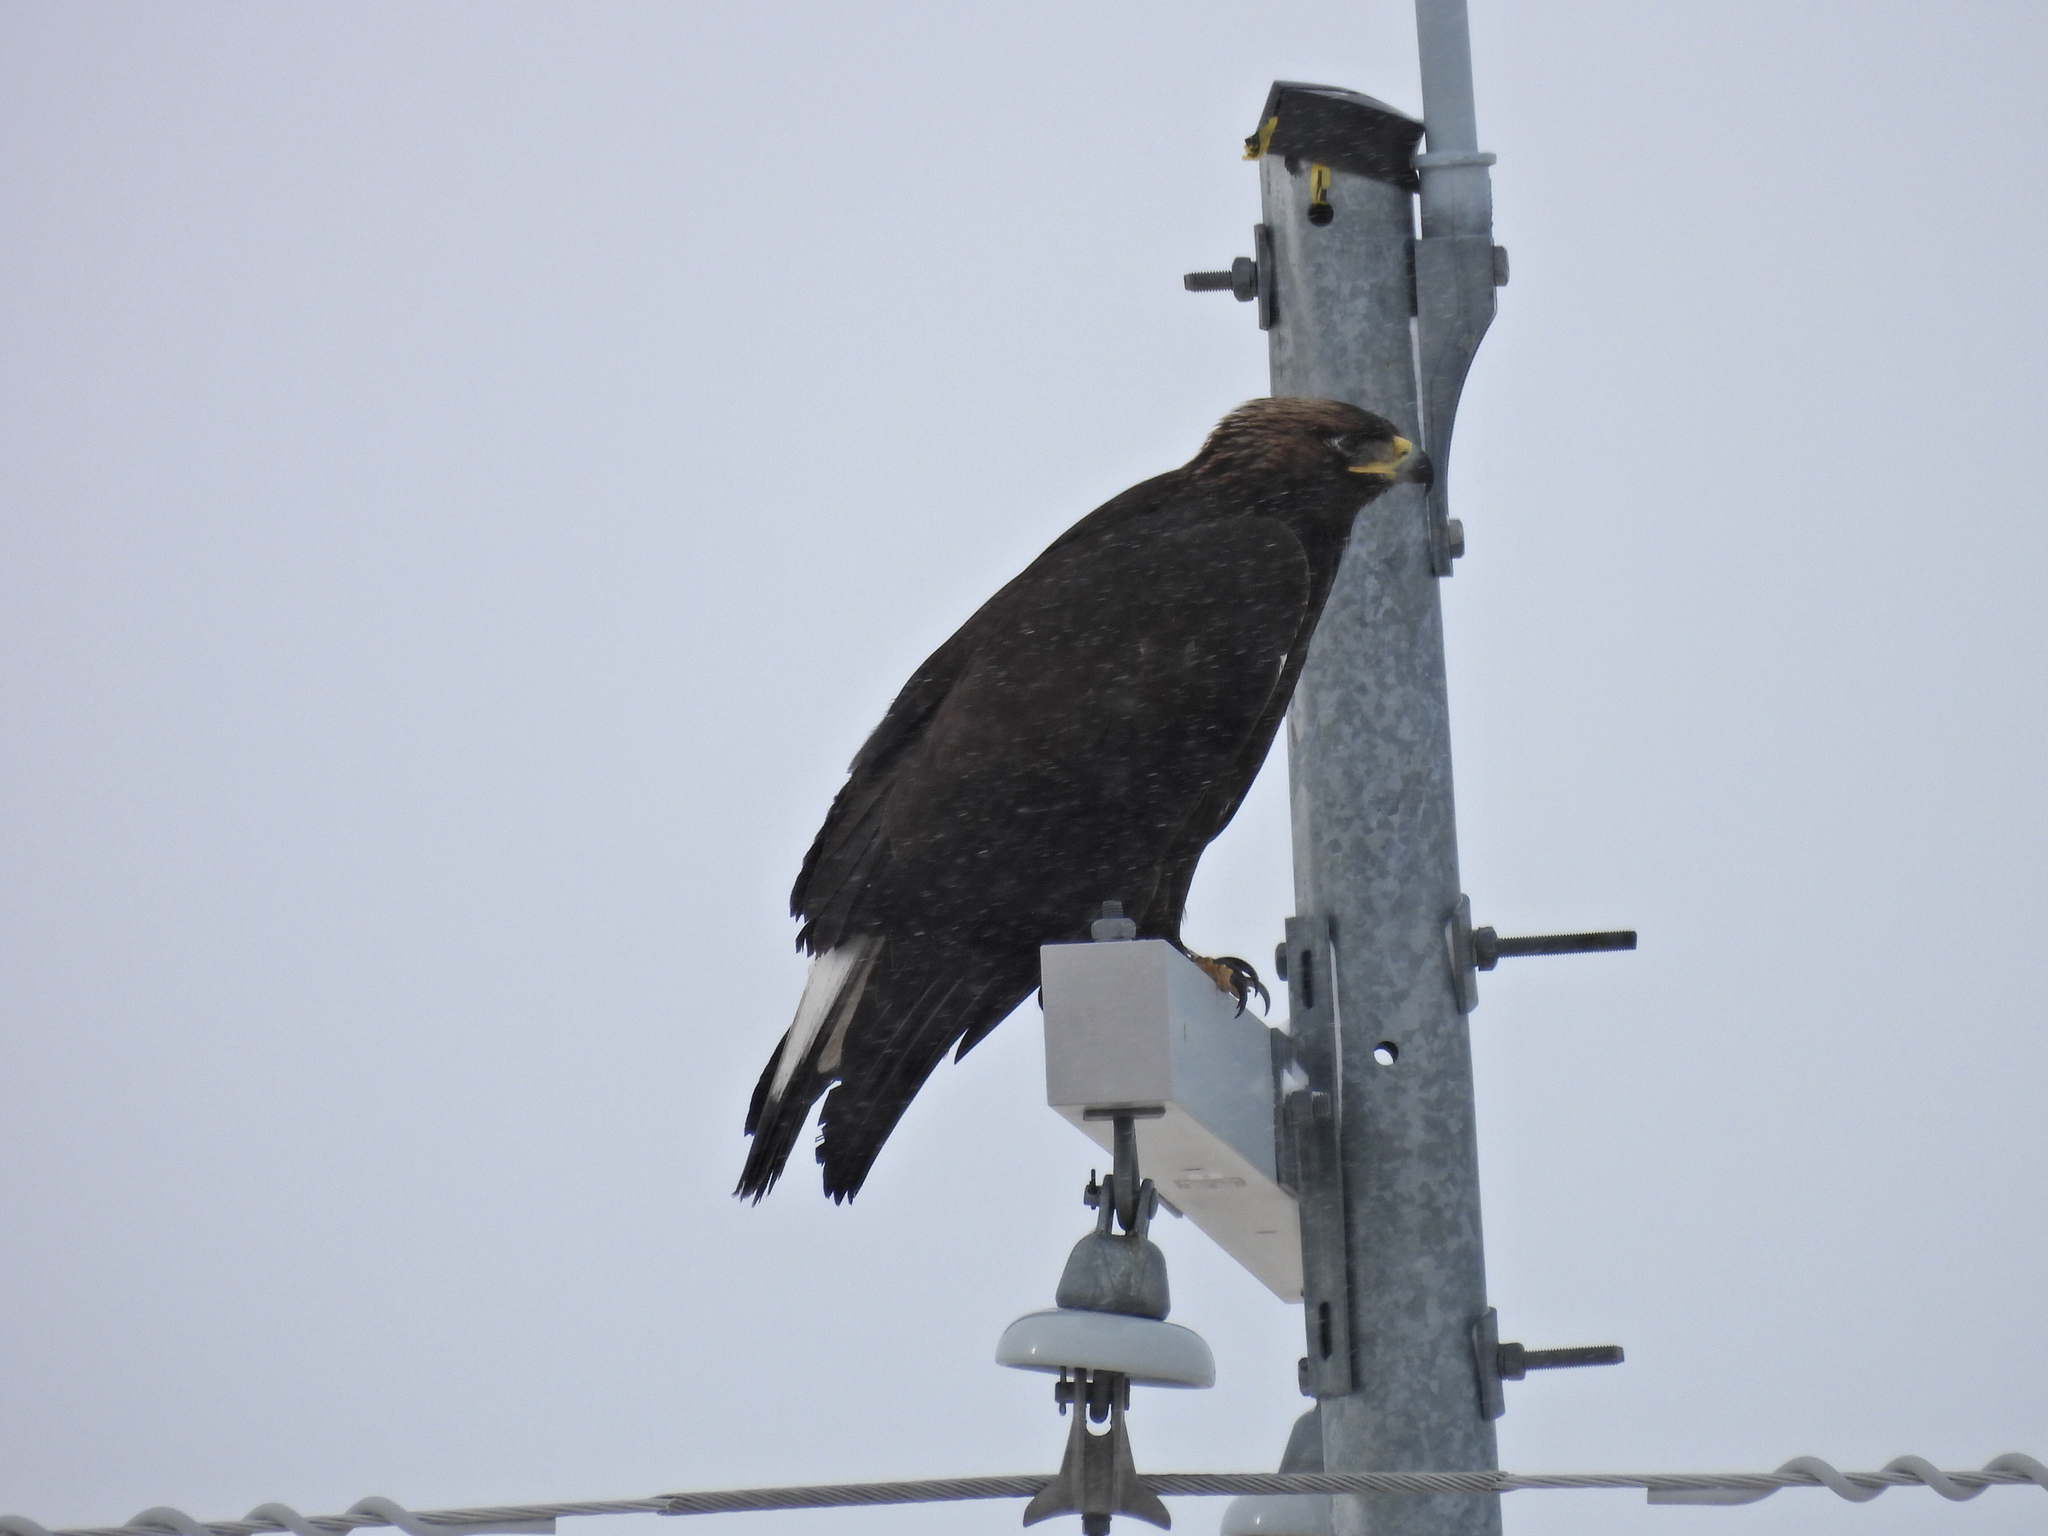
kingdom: Animalia
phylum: Chordata
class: Aves
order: Accipitriformes
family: Accipitridae
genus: Aquila
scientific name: Aquila chrysaetos
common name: Golden eagle
